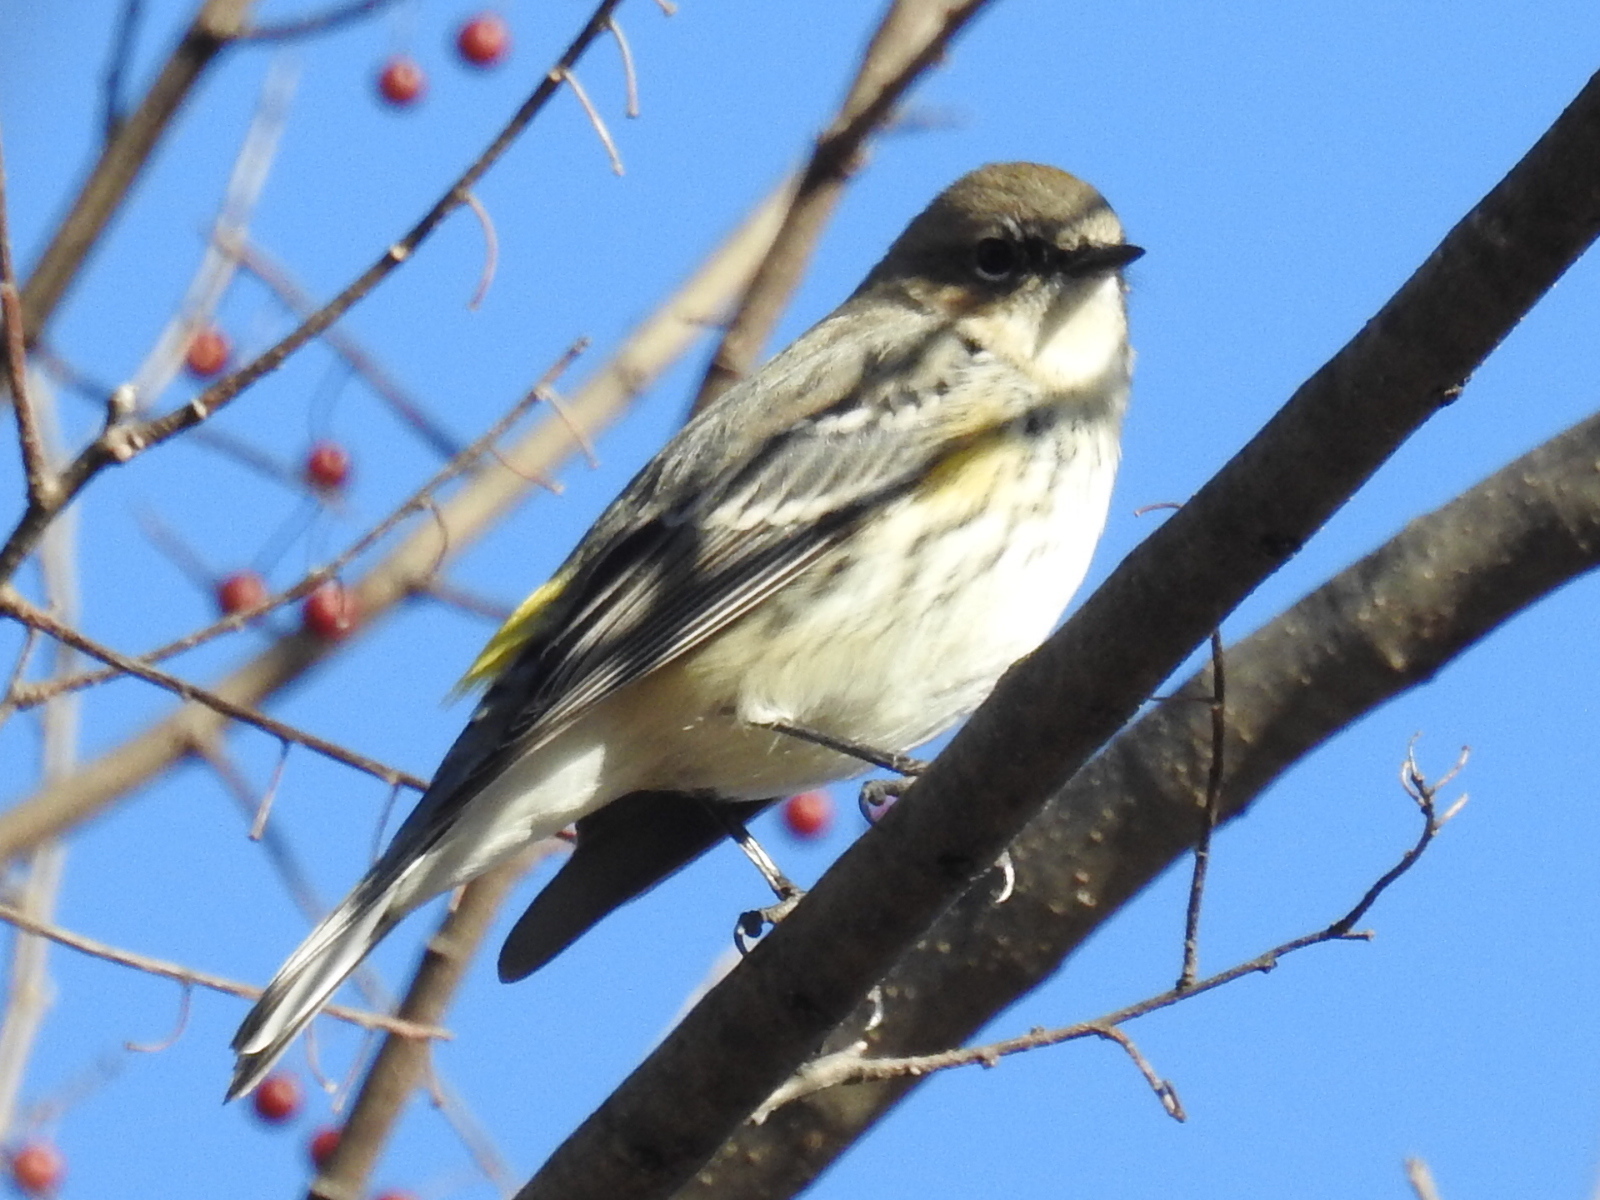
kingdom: Animalia
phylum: Chordata
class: Aves
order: Passeriformes
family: Parulidae
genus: Setophaga
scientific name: Setophaga coronata
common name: Myrtle warbler
